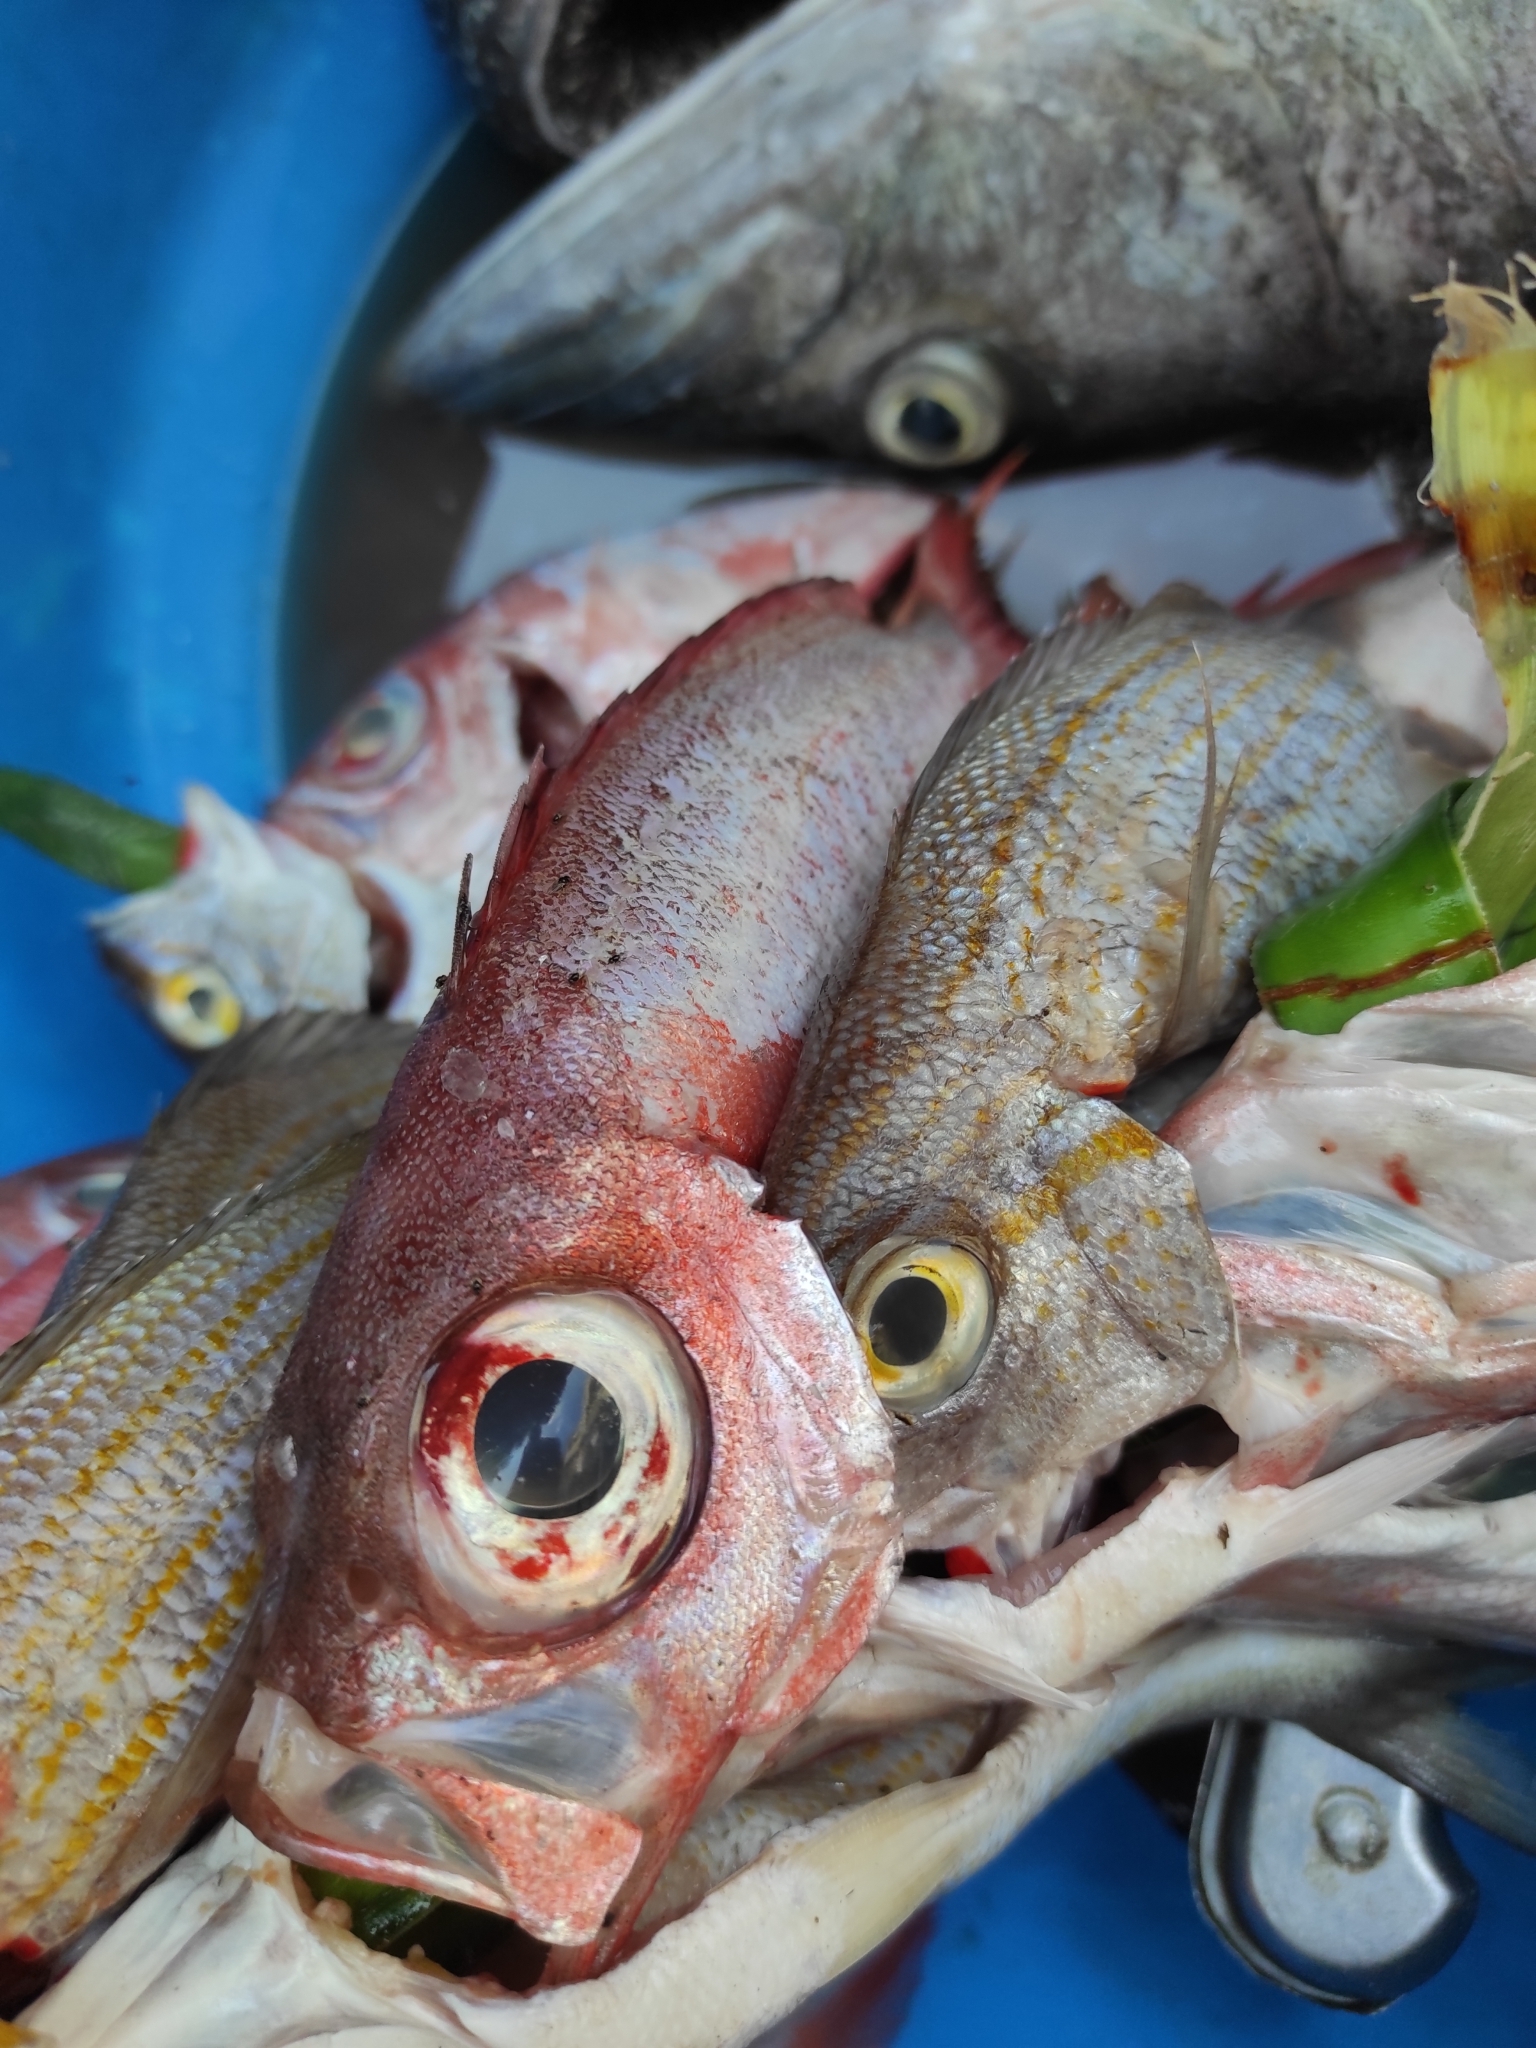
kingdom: Animalia
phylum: Chordata
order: Perciformes
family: Lutjanidae
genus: Rhomboplites
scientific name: Rhomboplites aurorubens
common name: Vermillion snapper
